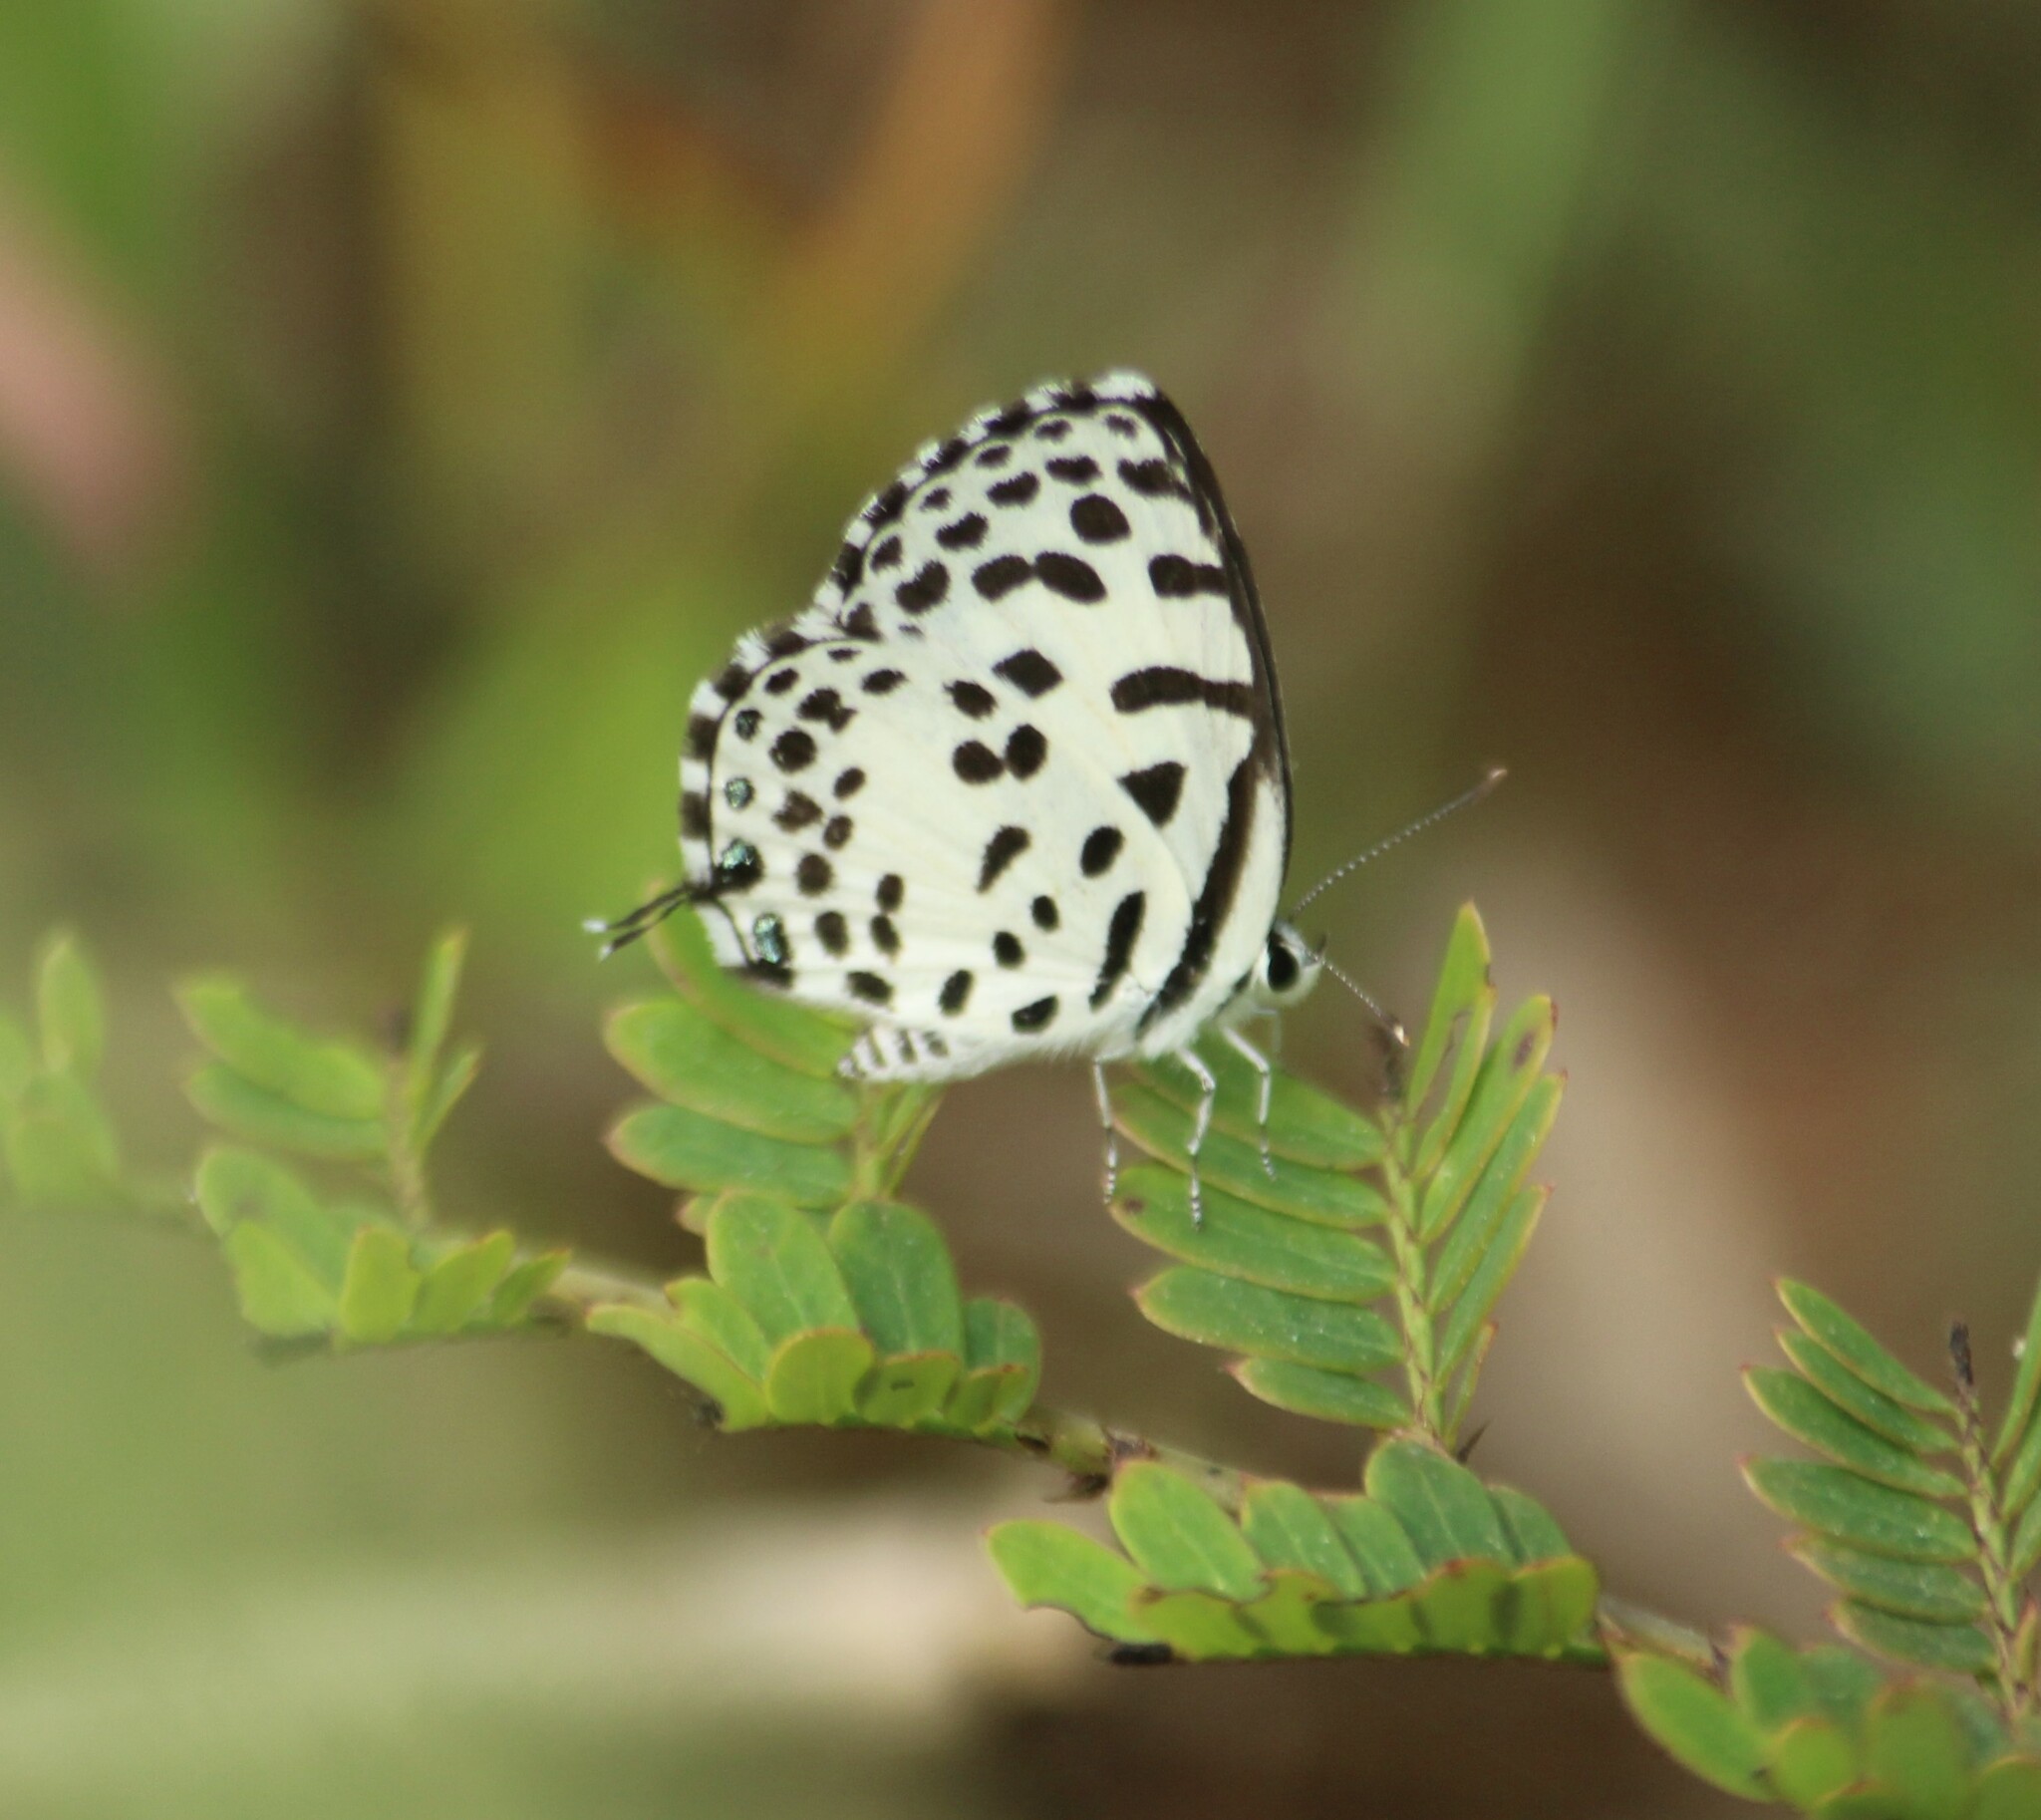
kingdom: Animalia
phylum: Arthropoda
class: Insecta
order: Lepidoptera
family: Lycaenidae
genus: Castalius
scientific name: Castalius rosimon
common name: Common pierrot
